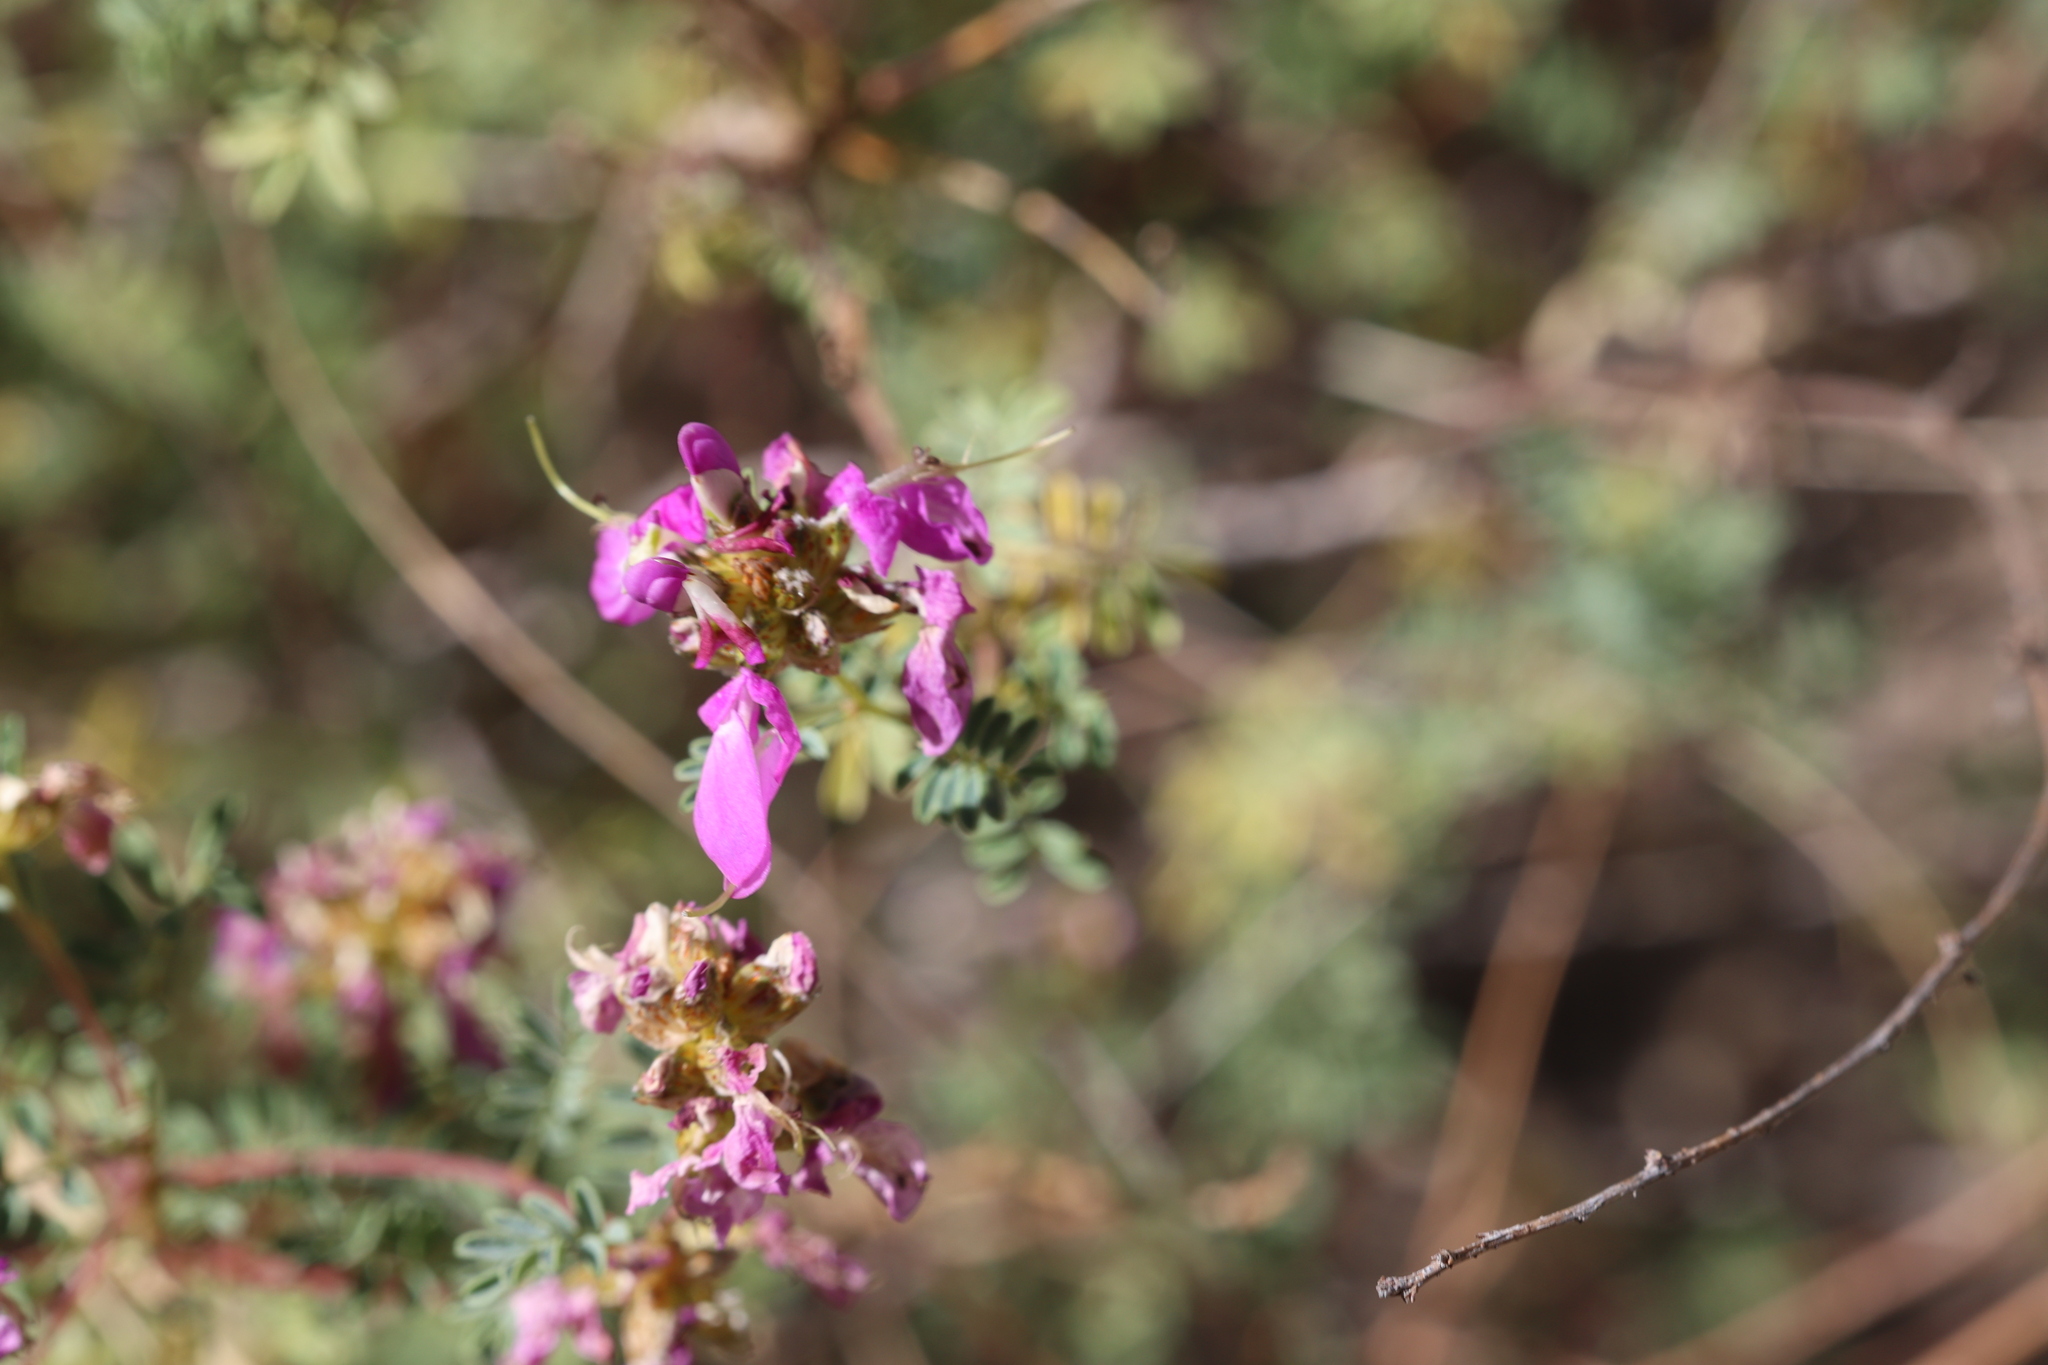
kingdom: Plantae
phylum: Tracheophyta
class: Magnoliopsida
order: Fabales
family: Fabaceae
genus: Dalea
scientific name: Dalea frutescens
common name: Black dalea
